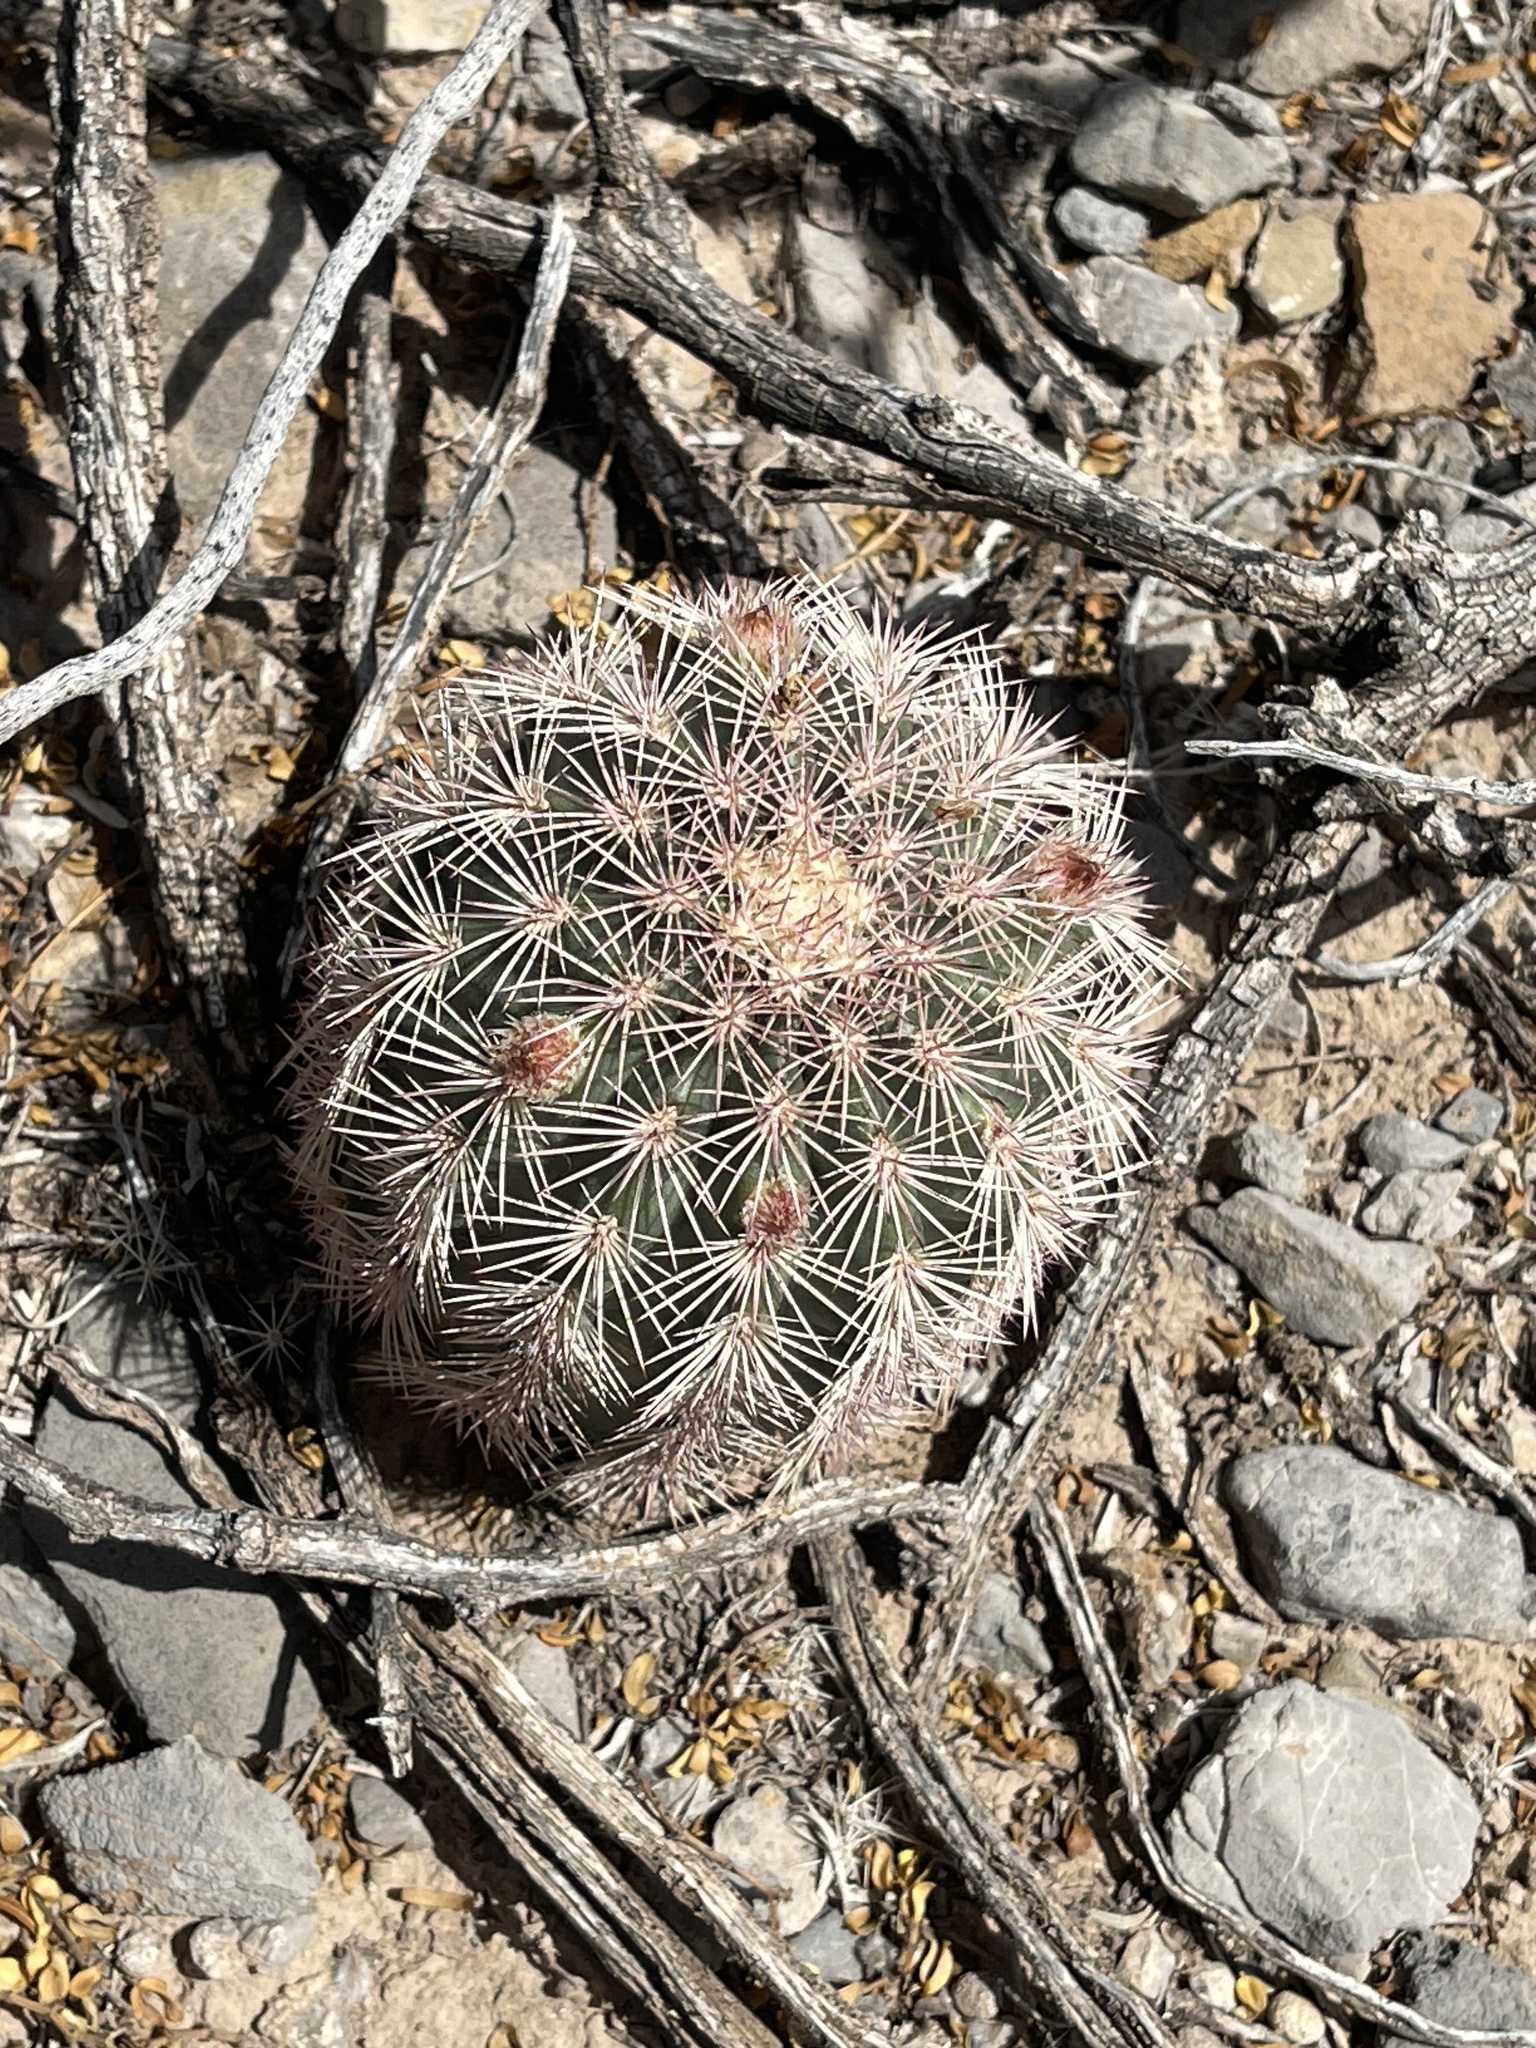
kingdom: Plantae
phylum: Tracheophyta
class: Magnoliopsida
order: Caryophyllales
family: Cactaceae
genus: Echinocereus
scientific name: Echinocereus dasyacanthus
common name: Spiny hedgehog cactus
